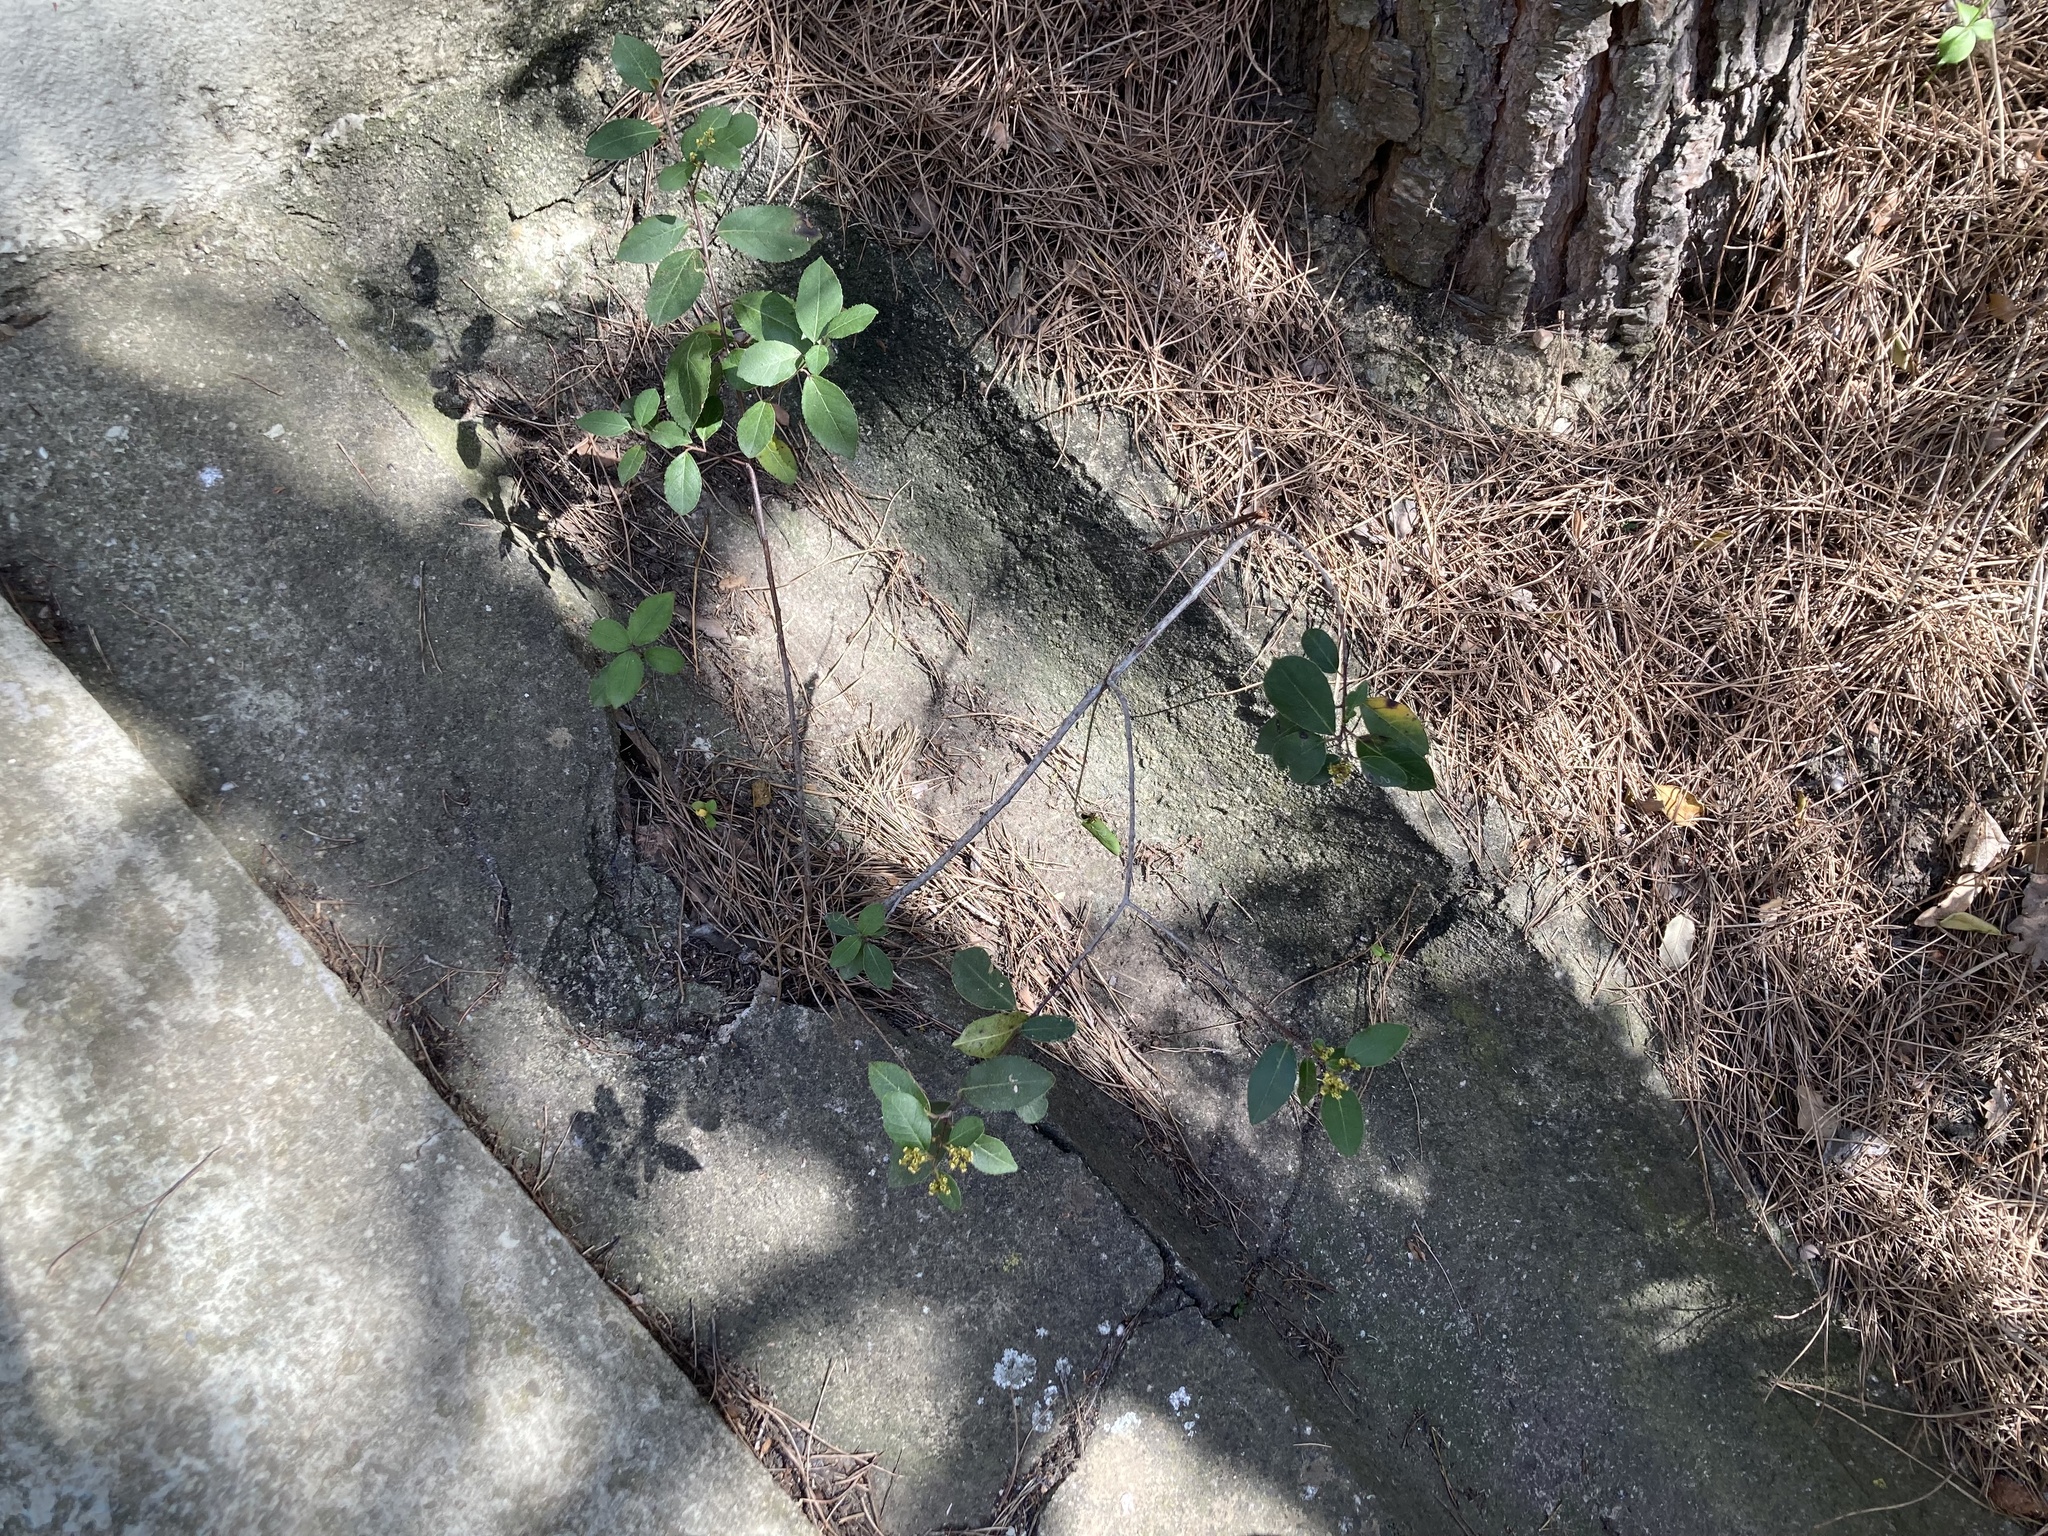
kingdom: Plantae
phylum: Tracheophyta
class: Magnoliopsida
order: Rosales
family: Rhamnaceae
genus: Rhamnus
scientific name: Rhamnus alaternus
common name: Mediterranean buckthorn
